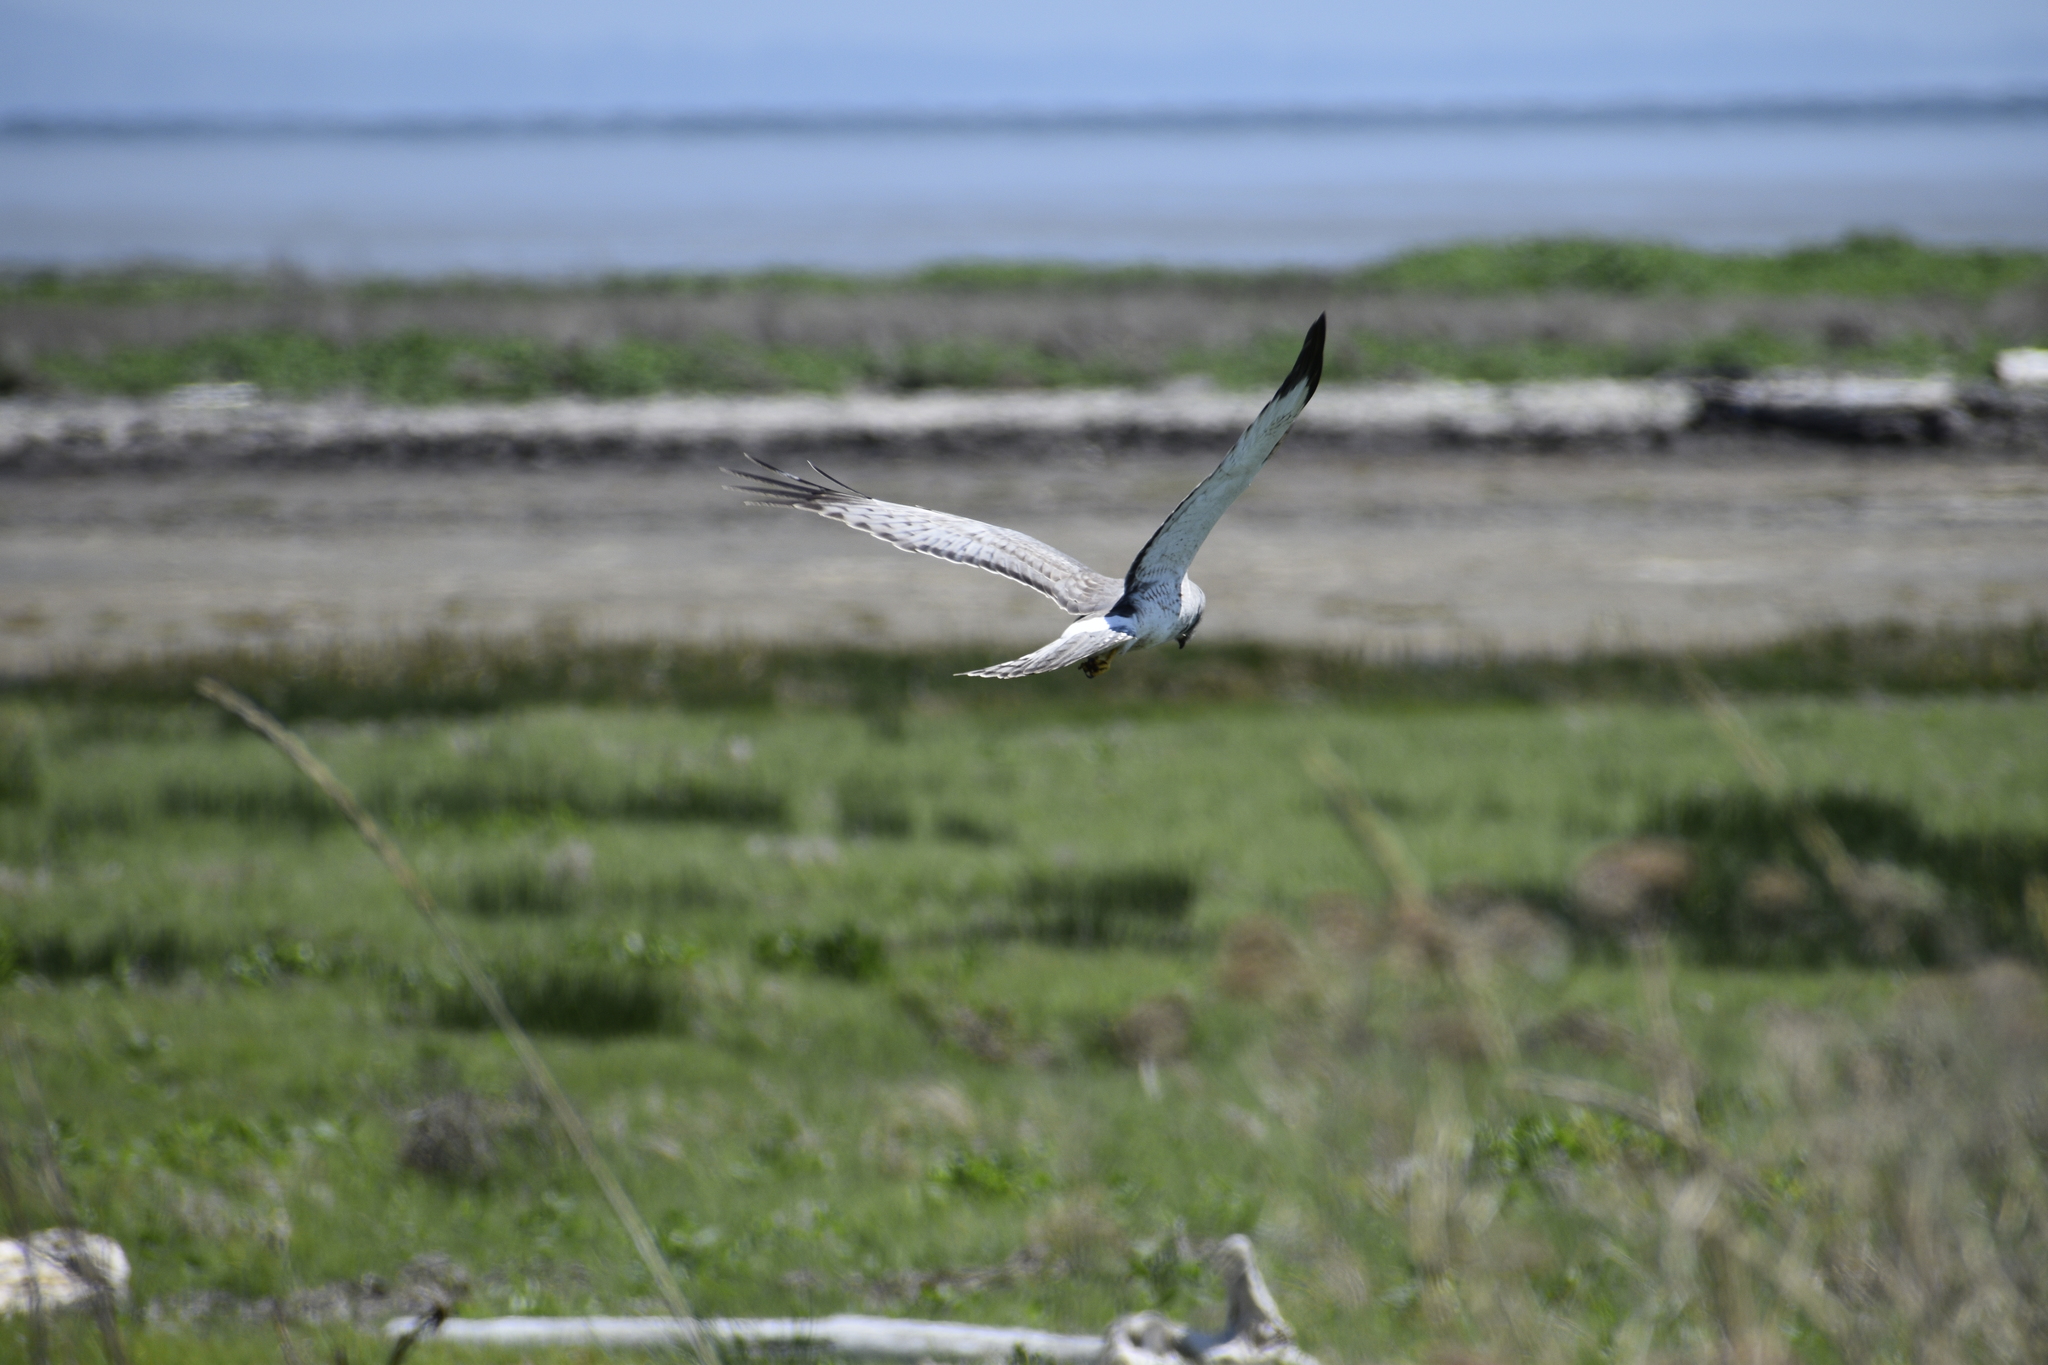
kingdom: Animalia
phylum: Chordata
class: Aves
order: Accipitriformes
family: Accipitridae
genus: Circus
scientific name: Circus cyaneus
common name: Hen harrier
